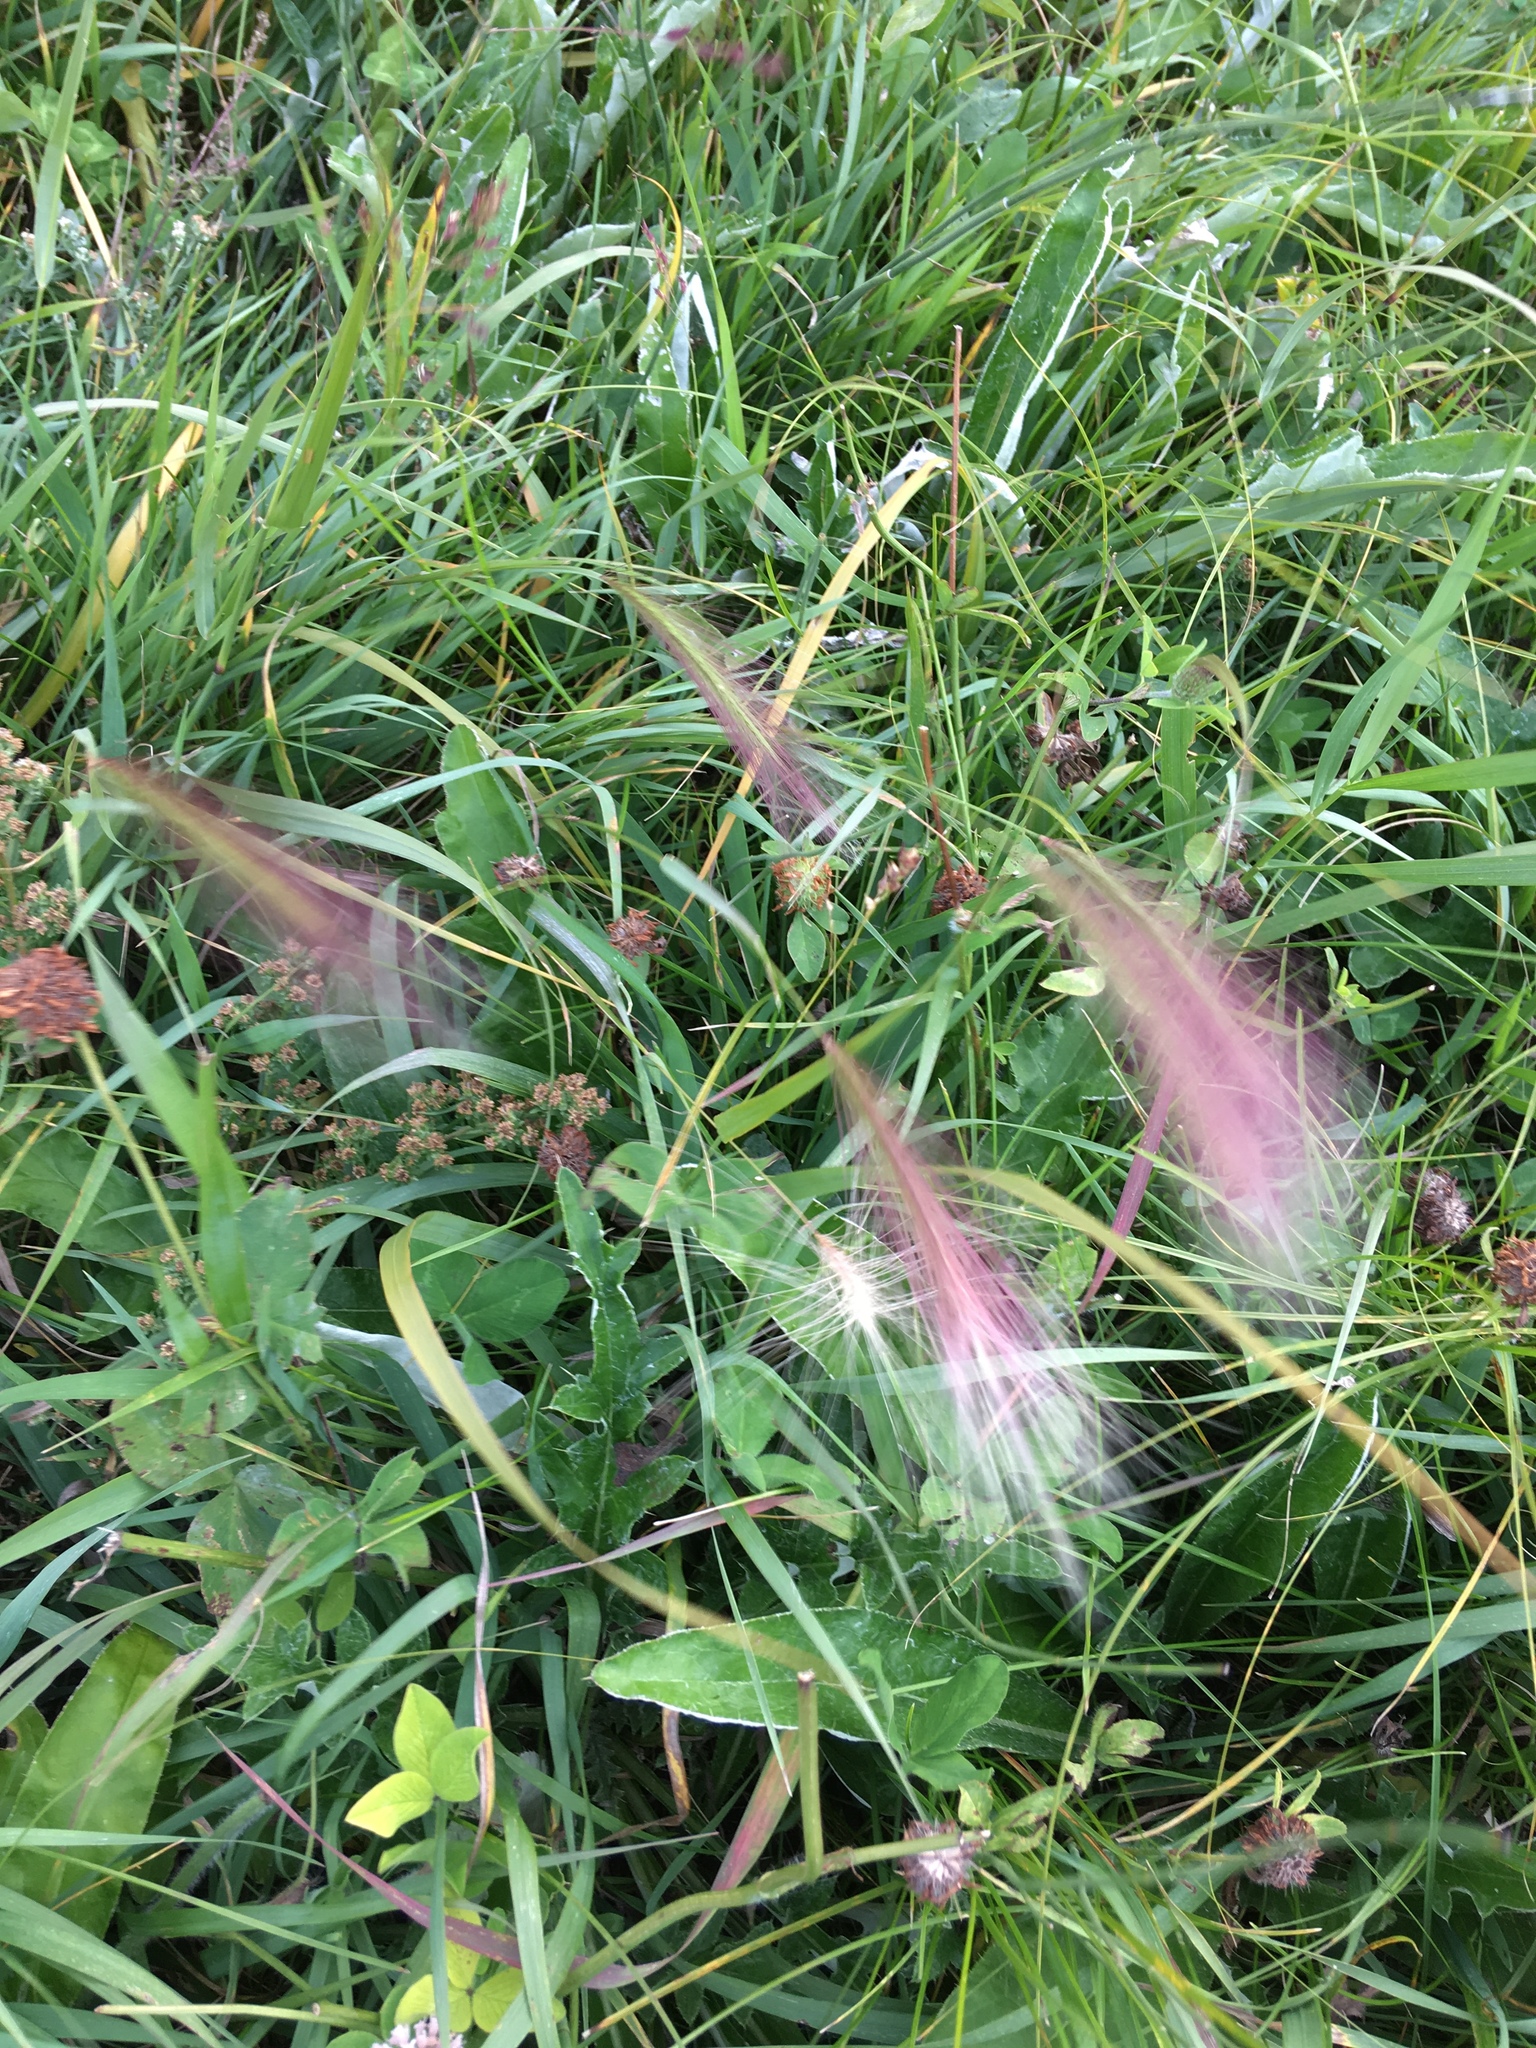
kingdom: Plantae
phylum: Tracheophyta
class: Liliopsida
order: Poales
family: Poaceae
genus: Hordeum
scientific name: Hordeum jubatum
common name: Foxtail barley
